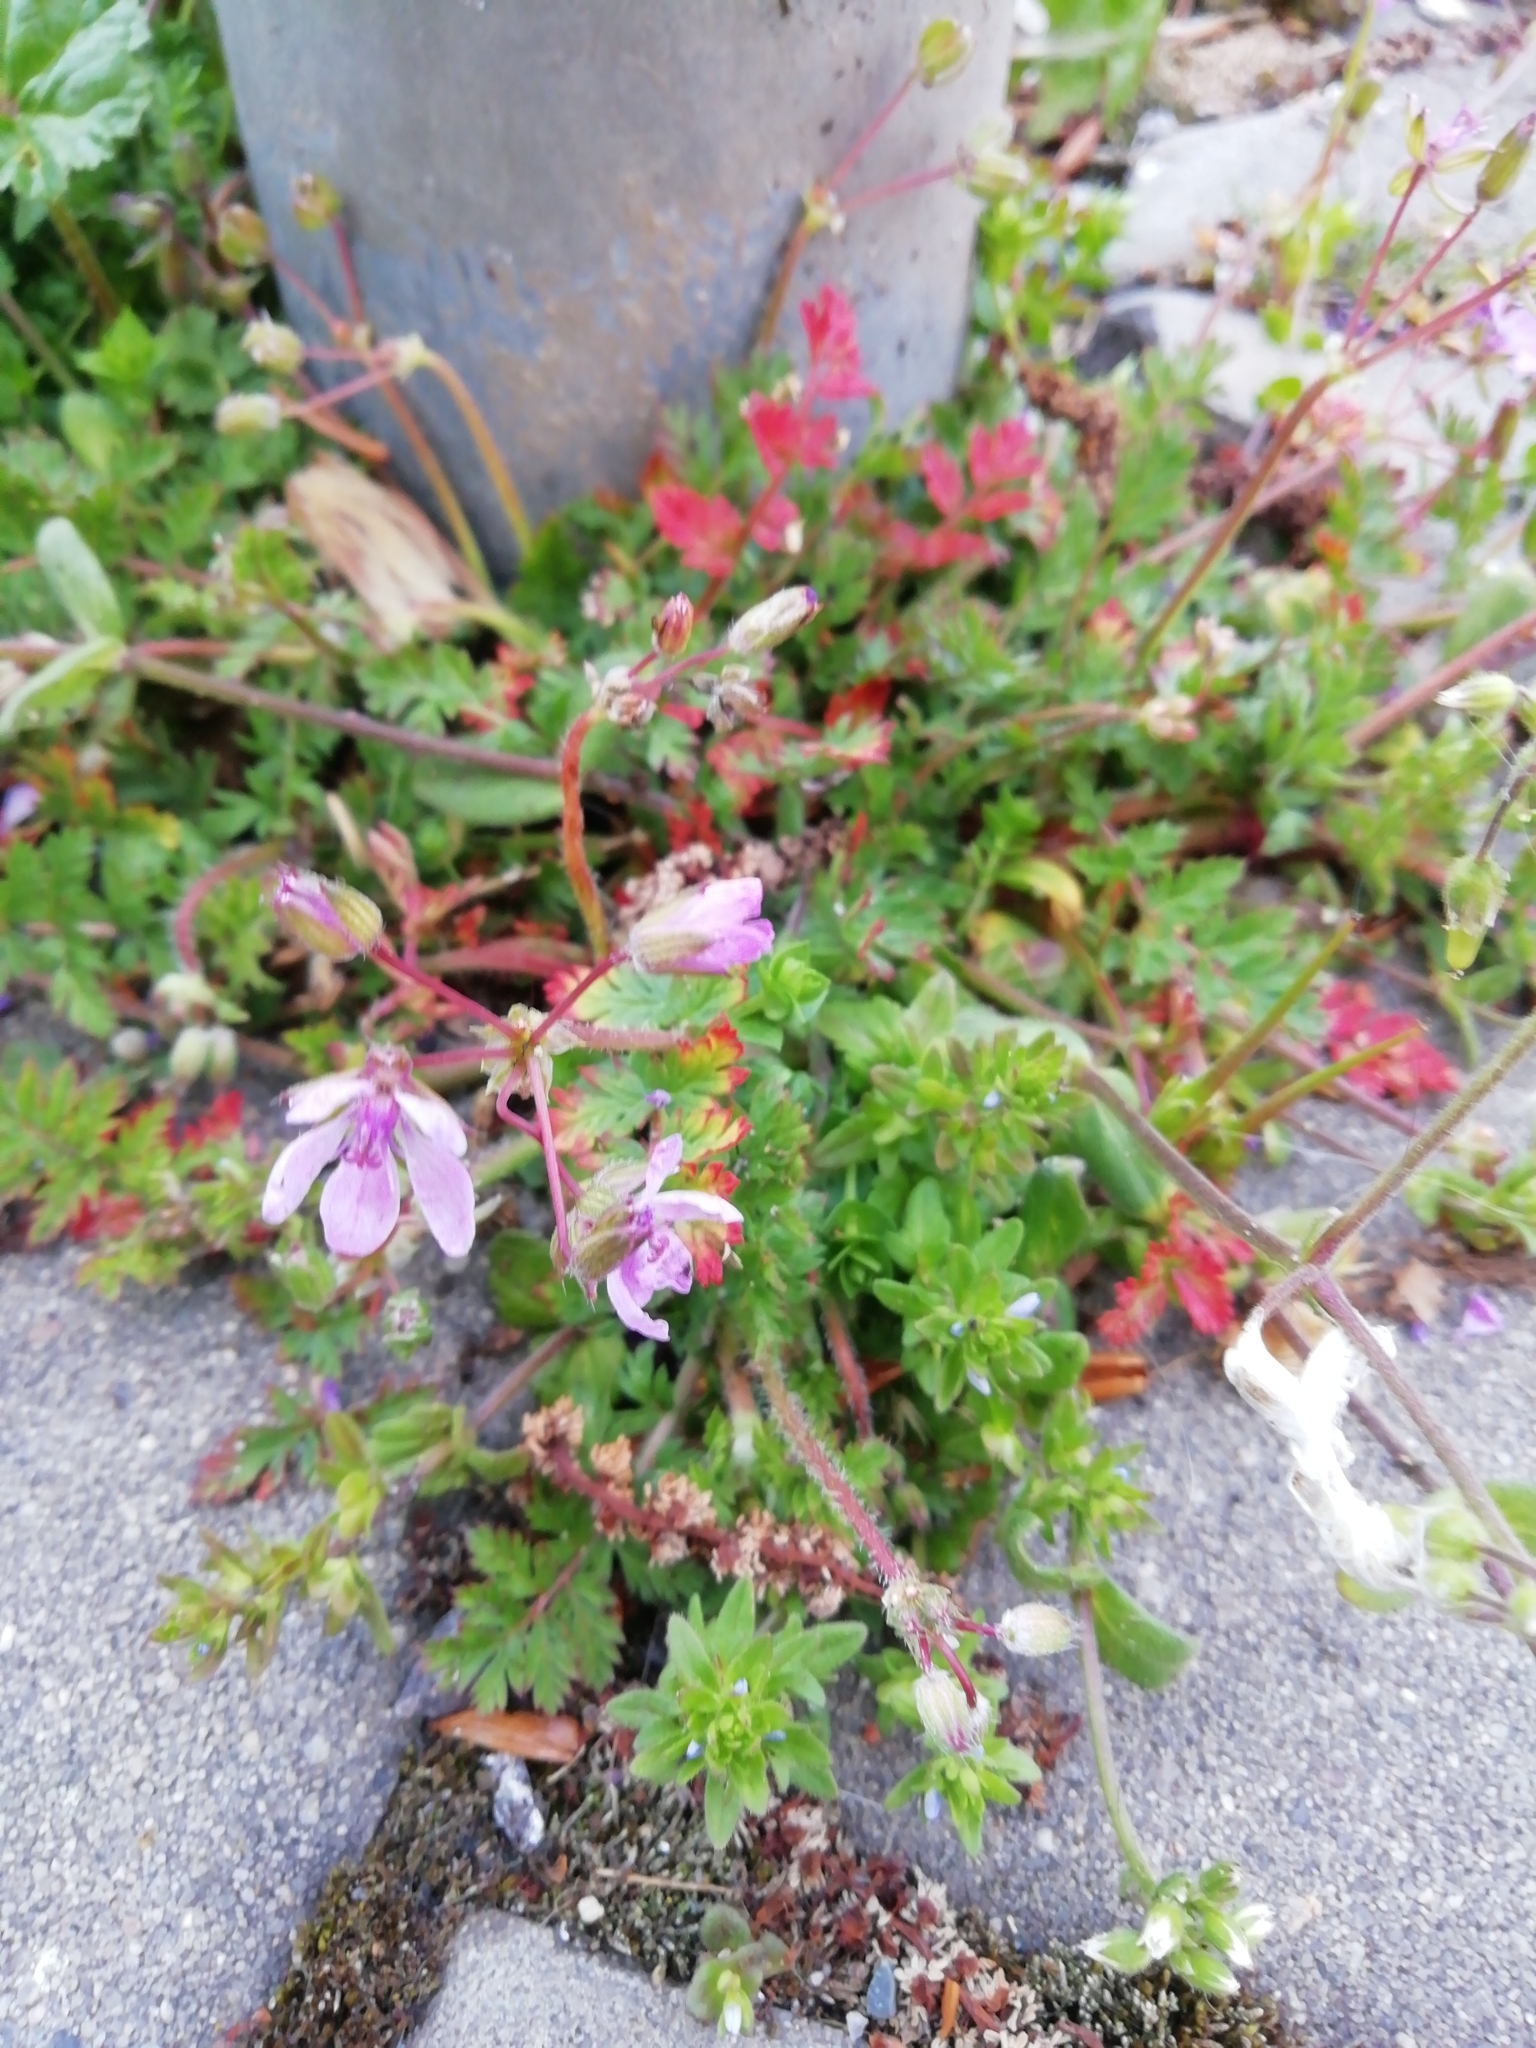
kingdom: Plantae
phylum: Tracheophyta
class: Magnoliopsida
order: Geraniales
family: Geraniaceae
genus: Erodium
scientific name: Erodium cicutarium
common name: Common stork's-bill
